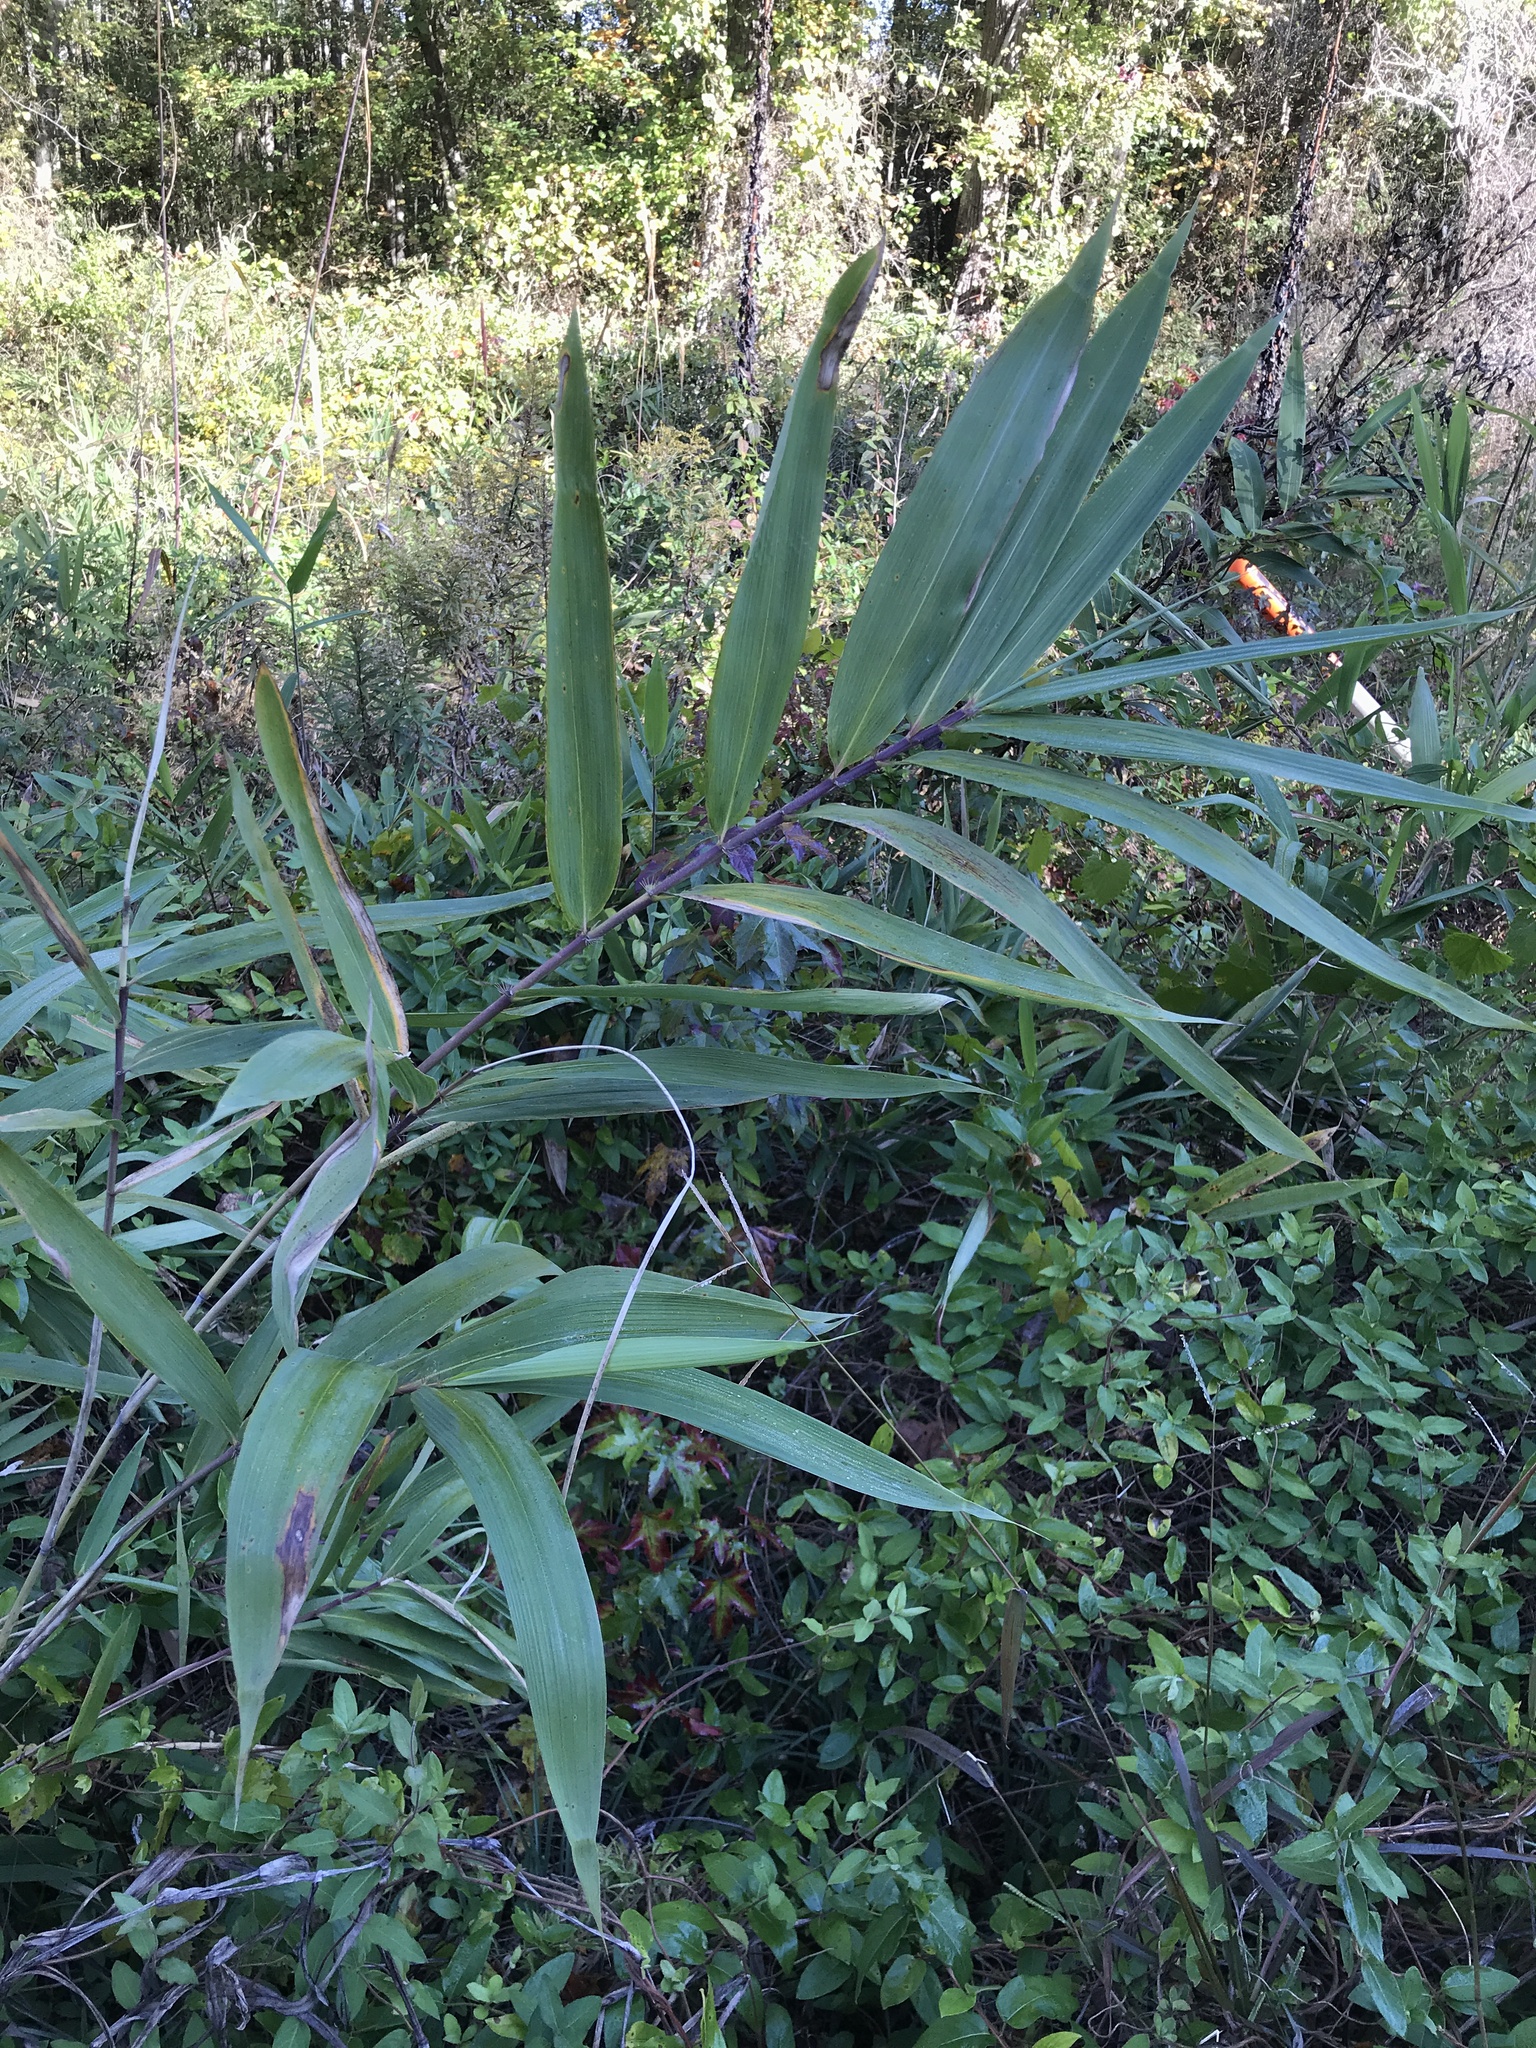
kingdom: Plantae
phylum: Tracheophyta
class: Liliopsida
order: Poales
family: Poaceae
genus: Arundinaria
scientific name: Arundinaria tecta
